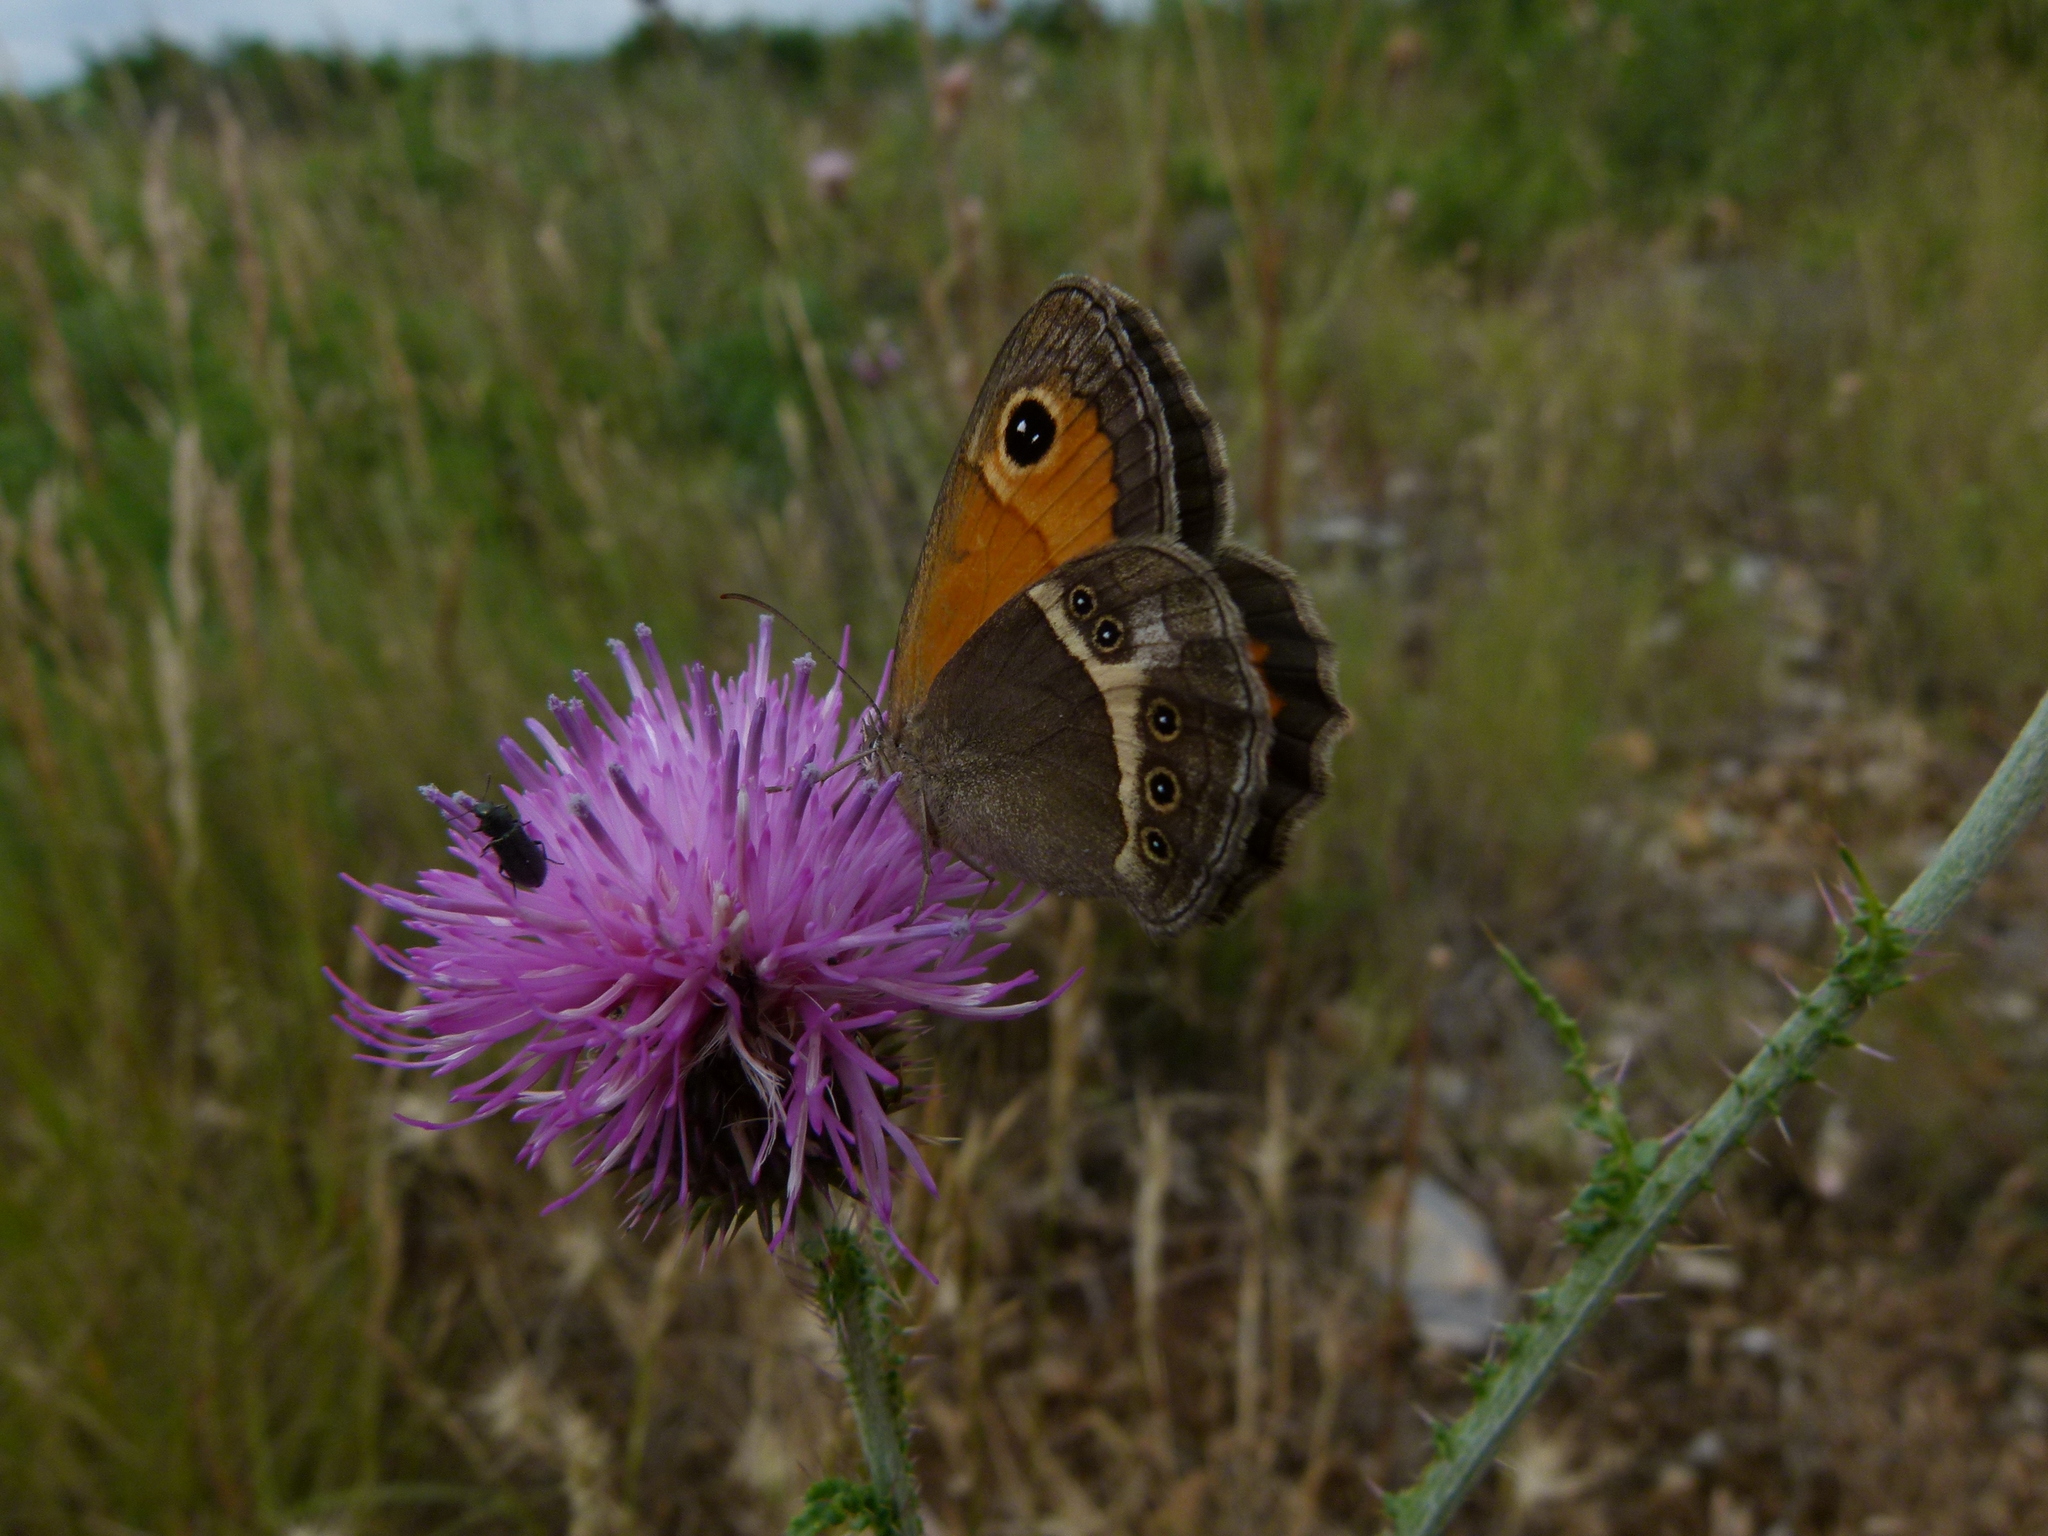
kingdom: Animalia
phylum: Arthropoda
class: Insecta
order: Lepidoptera
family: Nymphalidae
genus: Pyronia
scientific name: Pyronia bathseba
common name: Spanish gatekeeper
